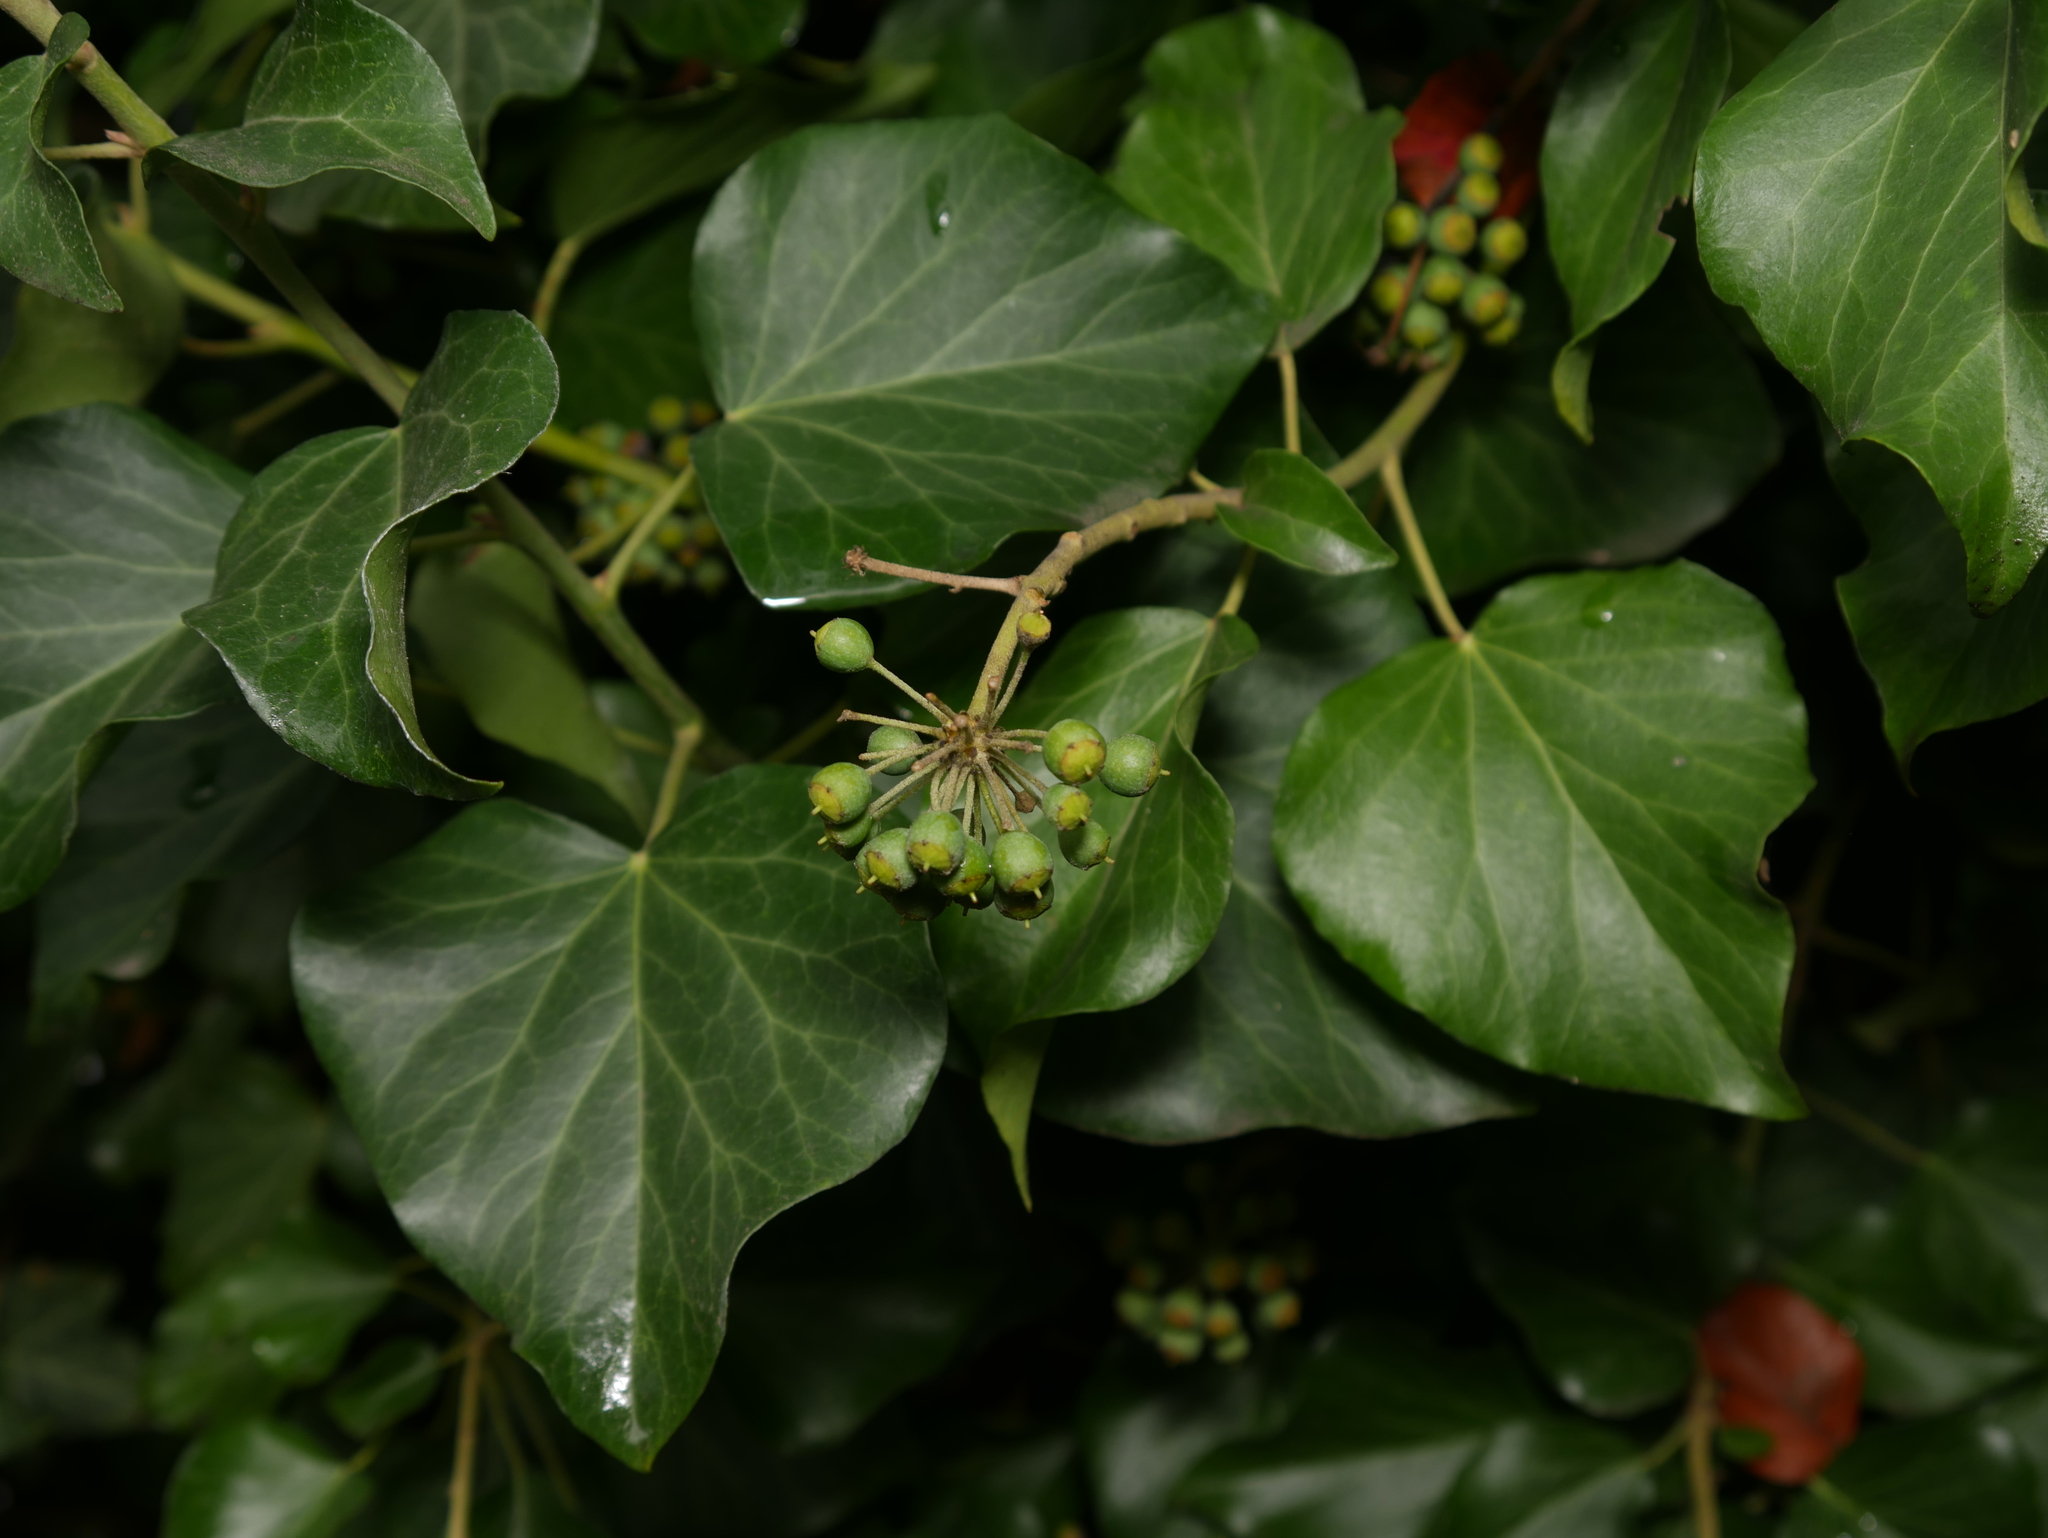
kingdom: Plantae
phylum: Tracheophyta
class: Magnoliopsida
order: Apiales
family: Araliaceae
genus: Hedera
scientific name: Hedera helix
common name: Ivy
